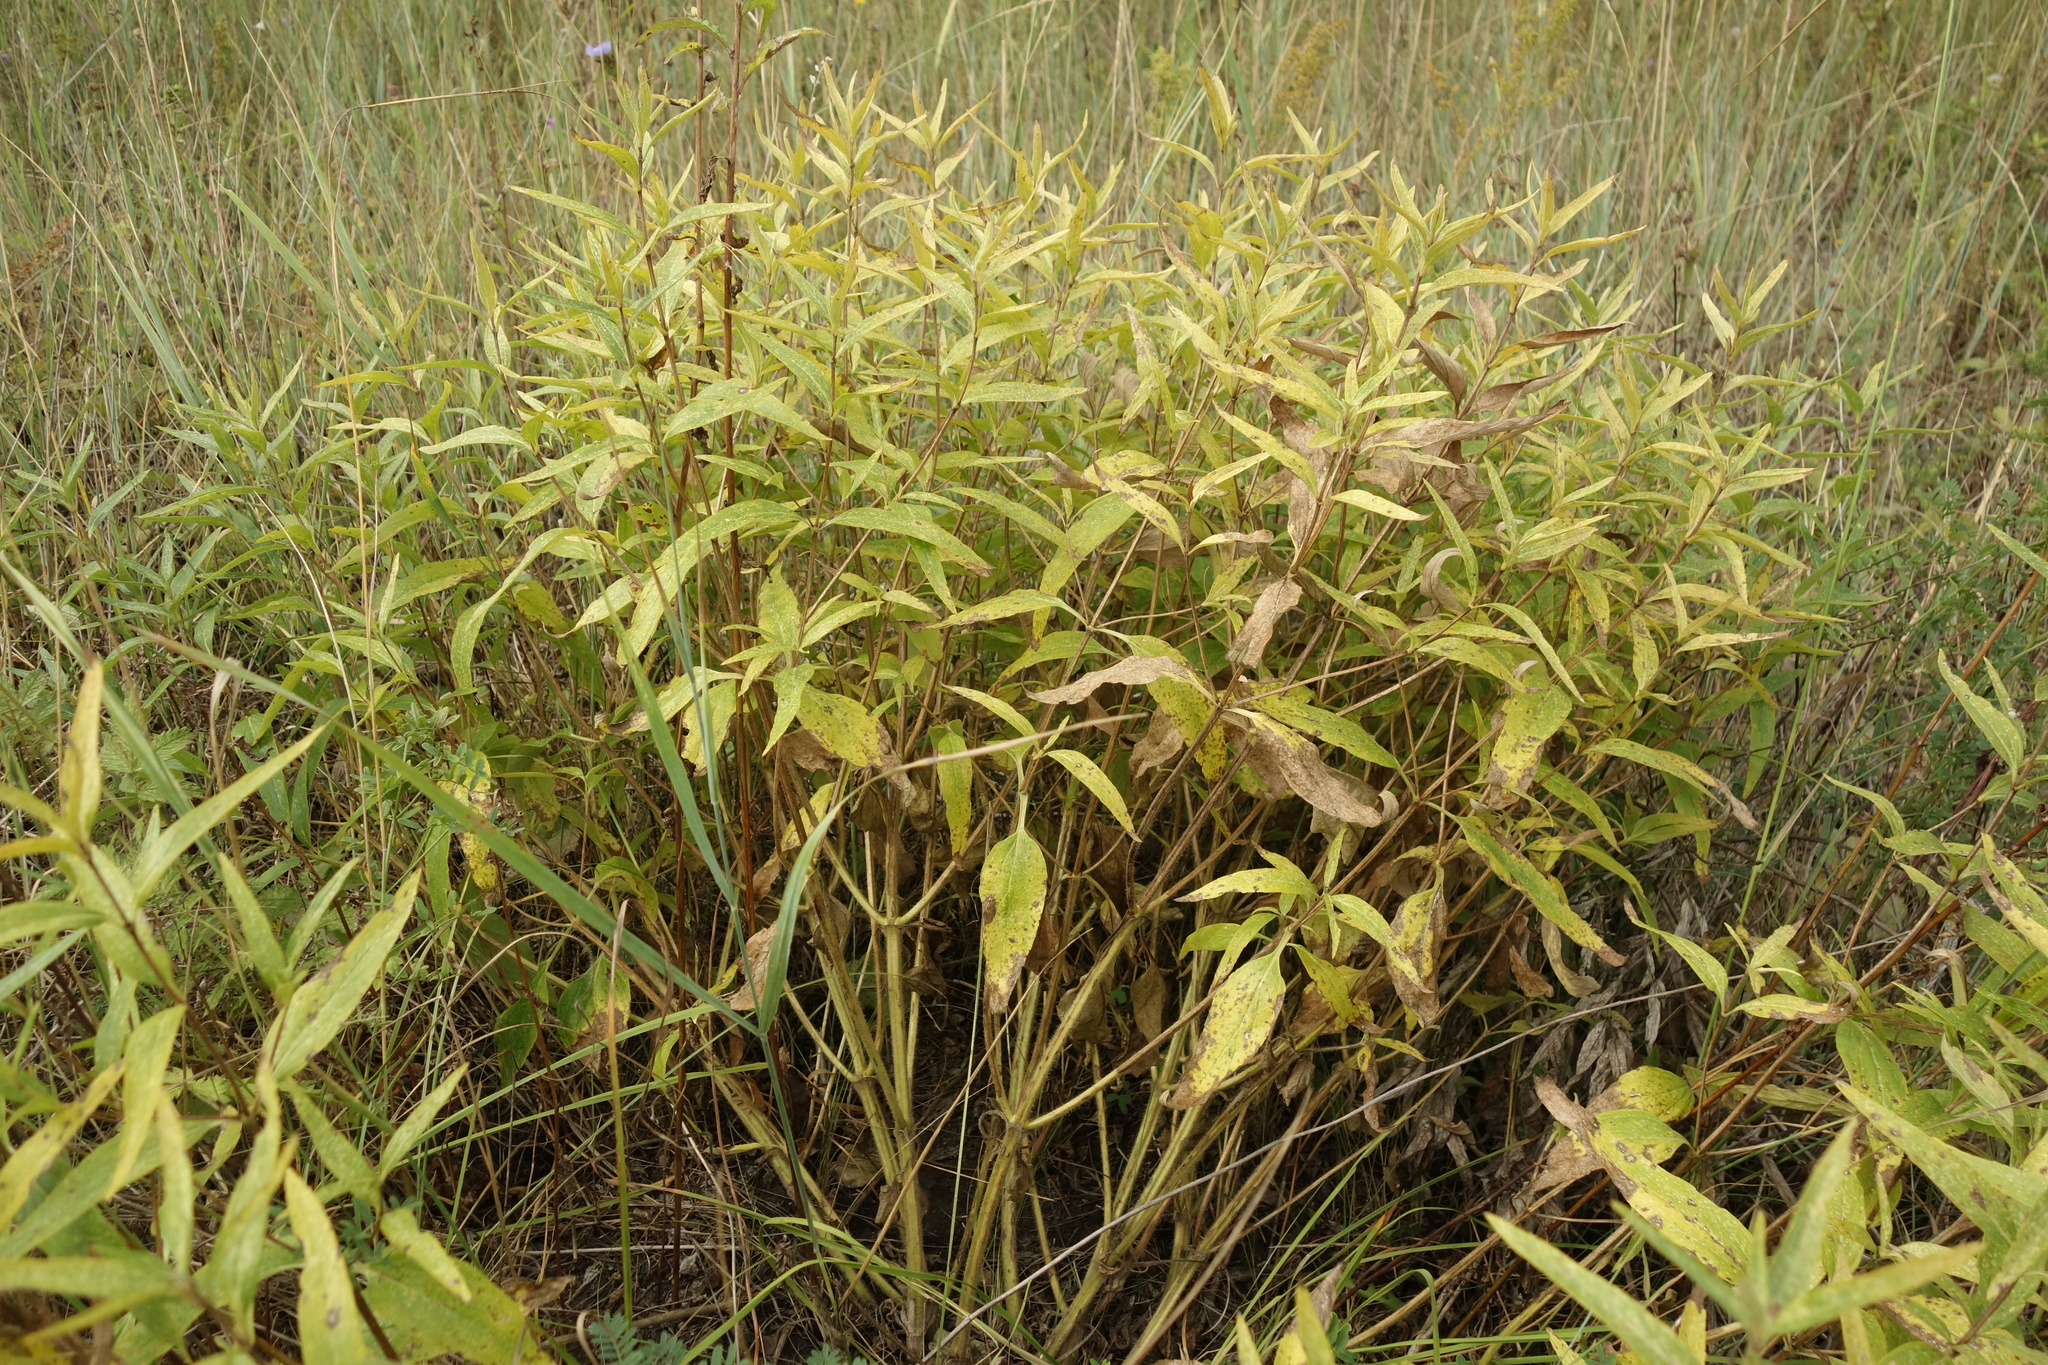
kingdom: Plantae
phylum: Tracheophyta
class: Magnoliopsida
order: Lamiales
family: Lamiaceae
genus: Phlomis
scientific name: Phlomis herba-venti
